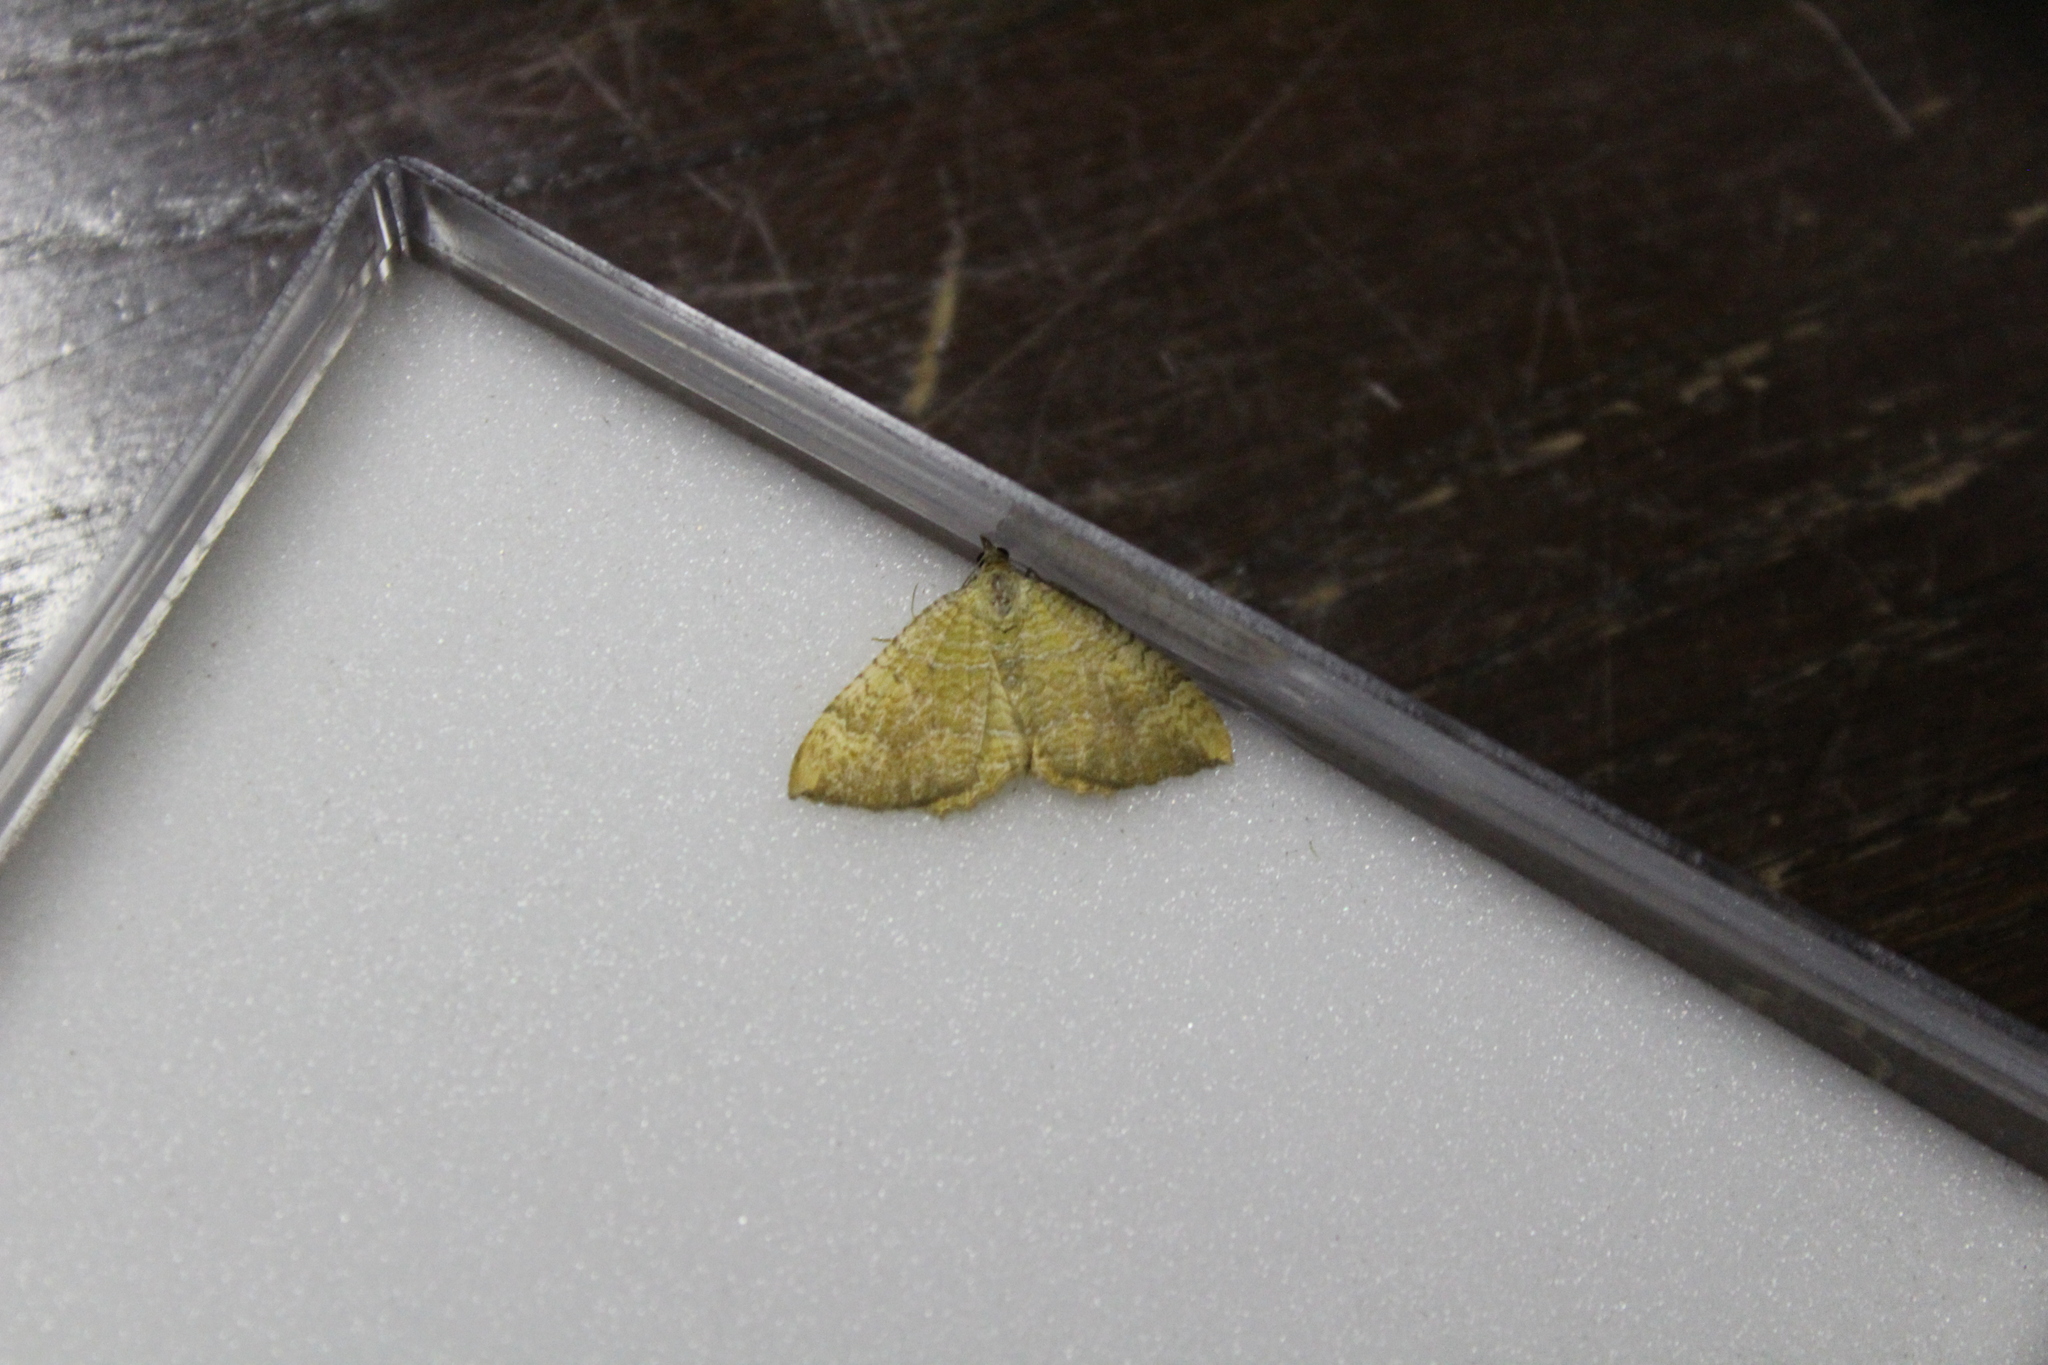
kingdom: Animalia
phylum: Arthropoda
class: Insecta
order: Lepidoptera
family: Geometridae
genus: Camptogramma
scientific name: Camptogramma bilineata
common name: Yellow shell
